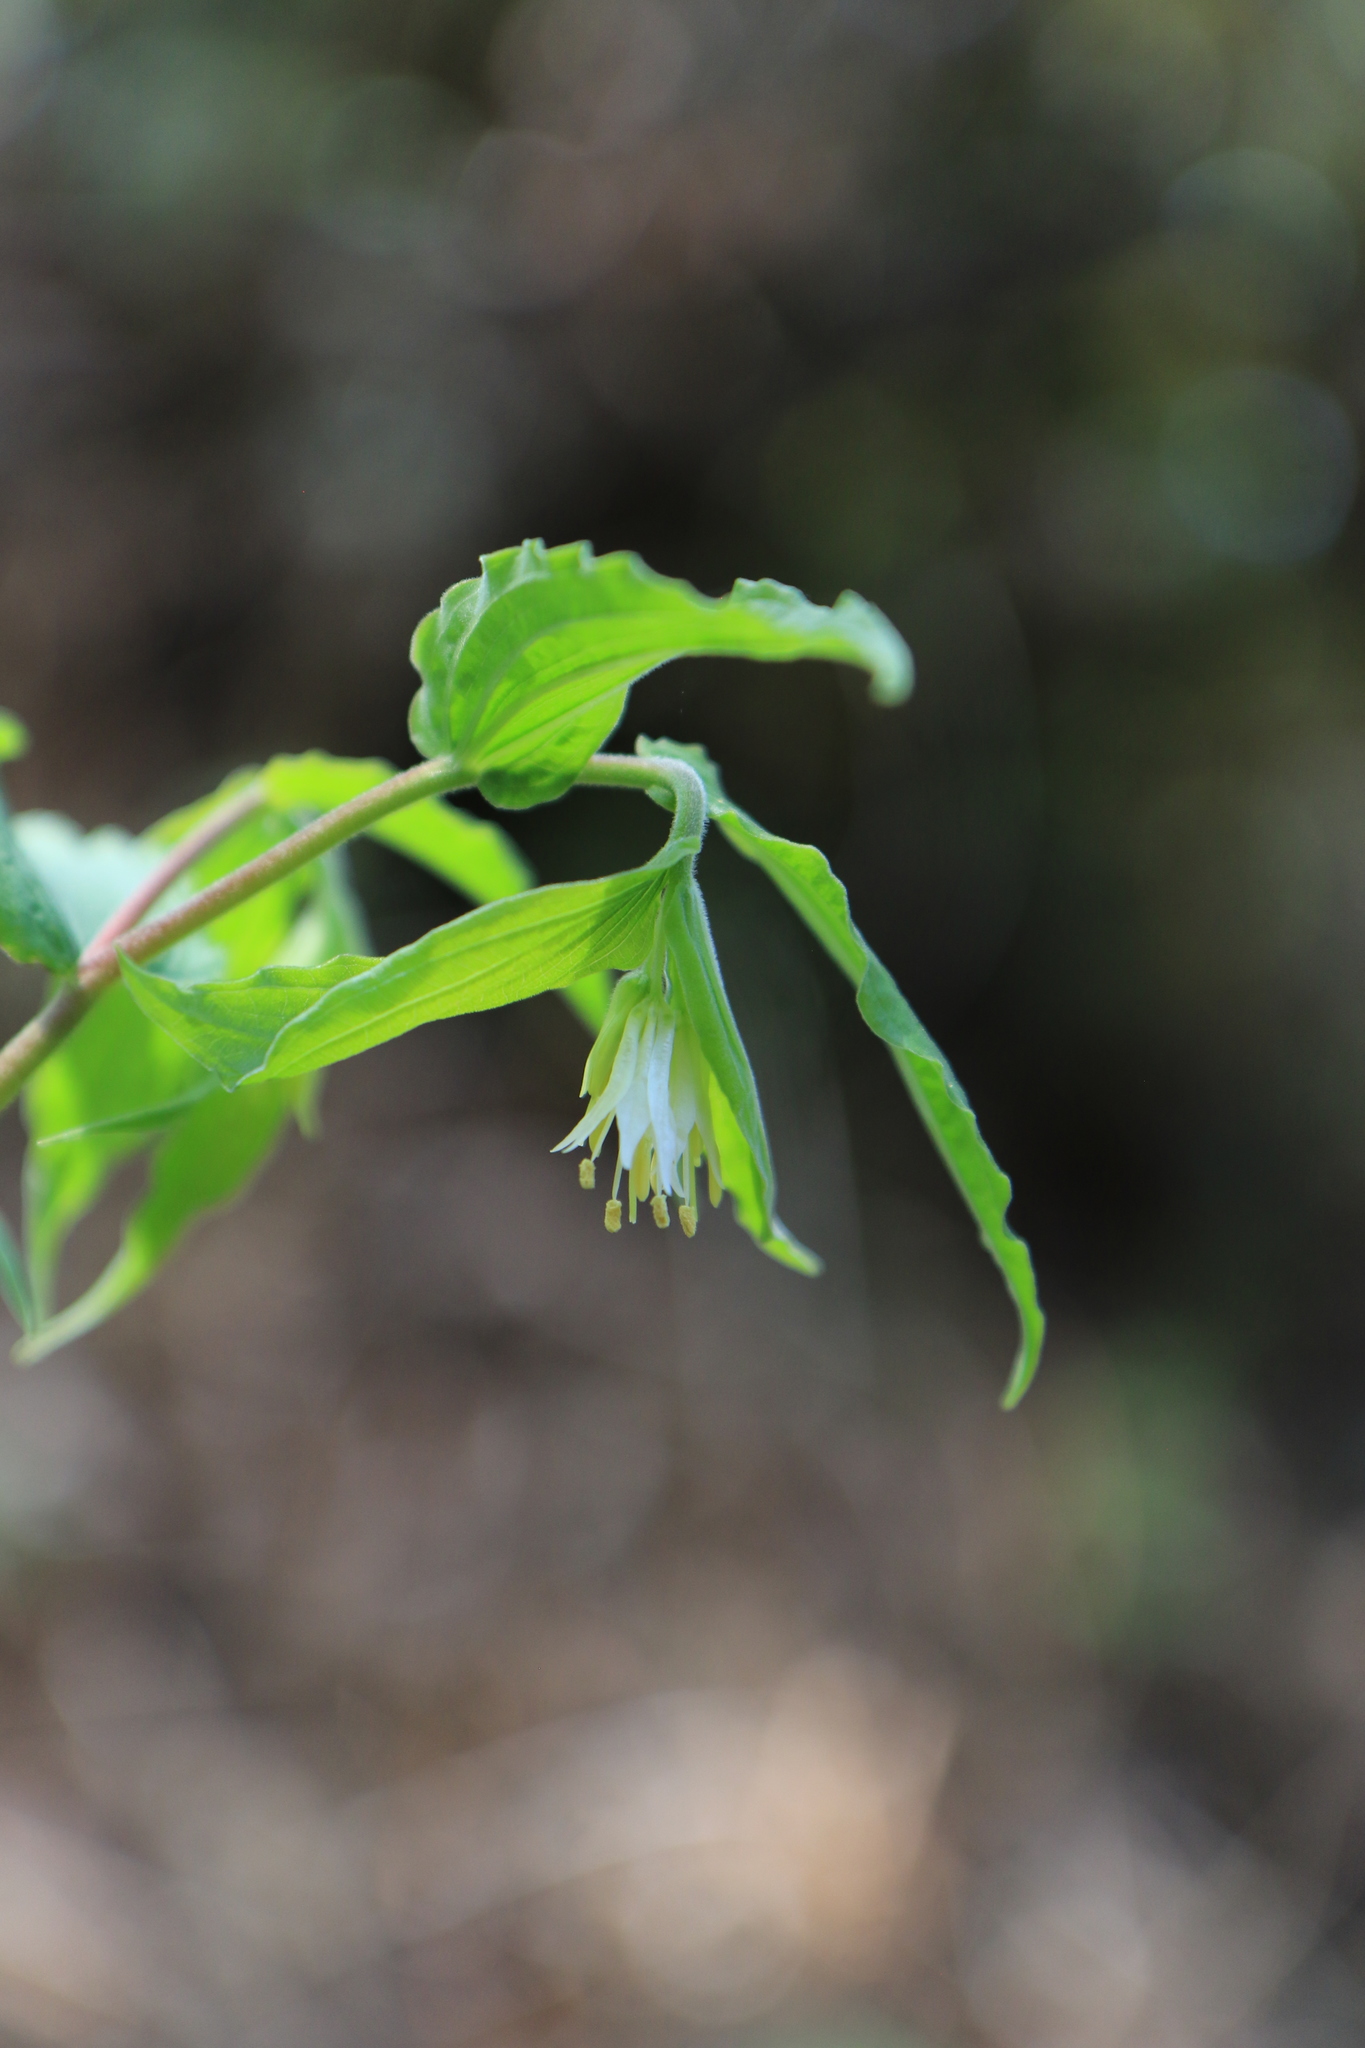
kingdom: Plantae
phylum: Tracheophyta
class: Liliopsida
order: Liliales
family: Liliaceae
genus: Prosartes
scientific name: Prosartes hookeri
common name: Fairy-bells
